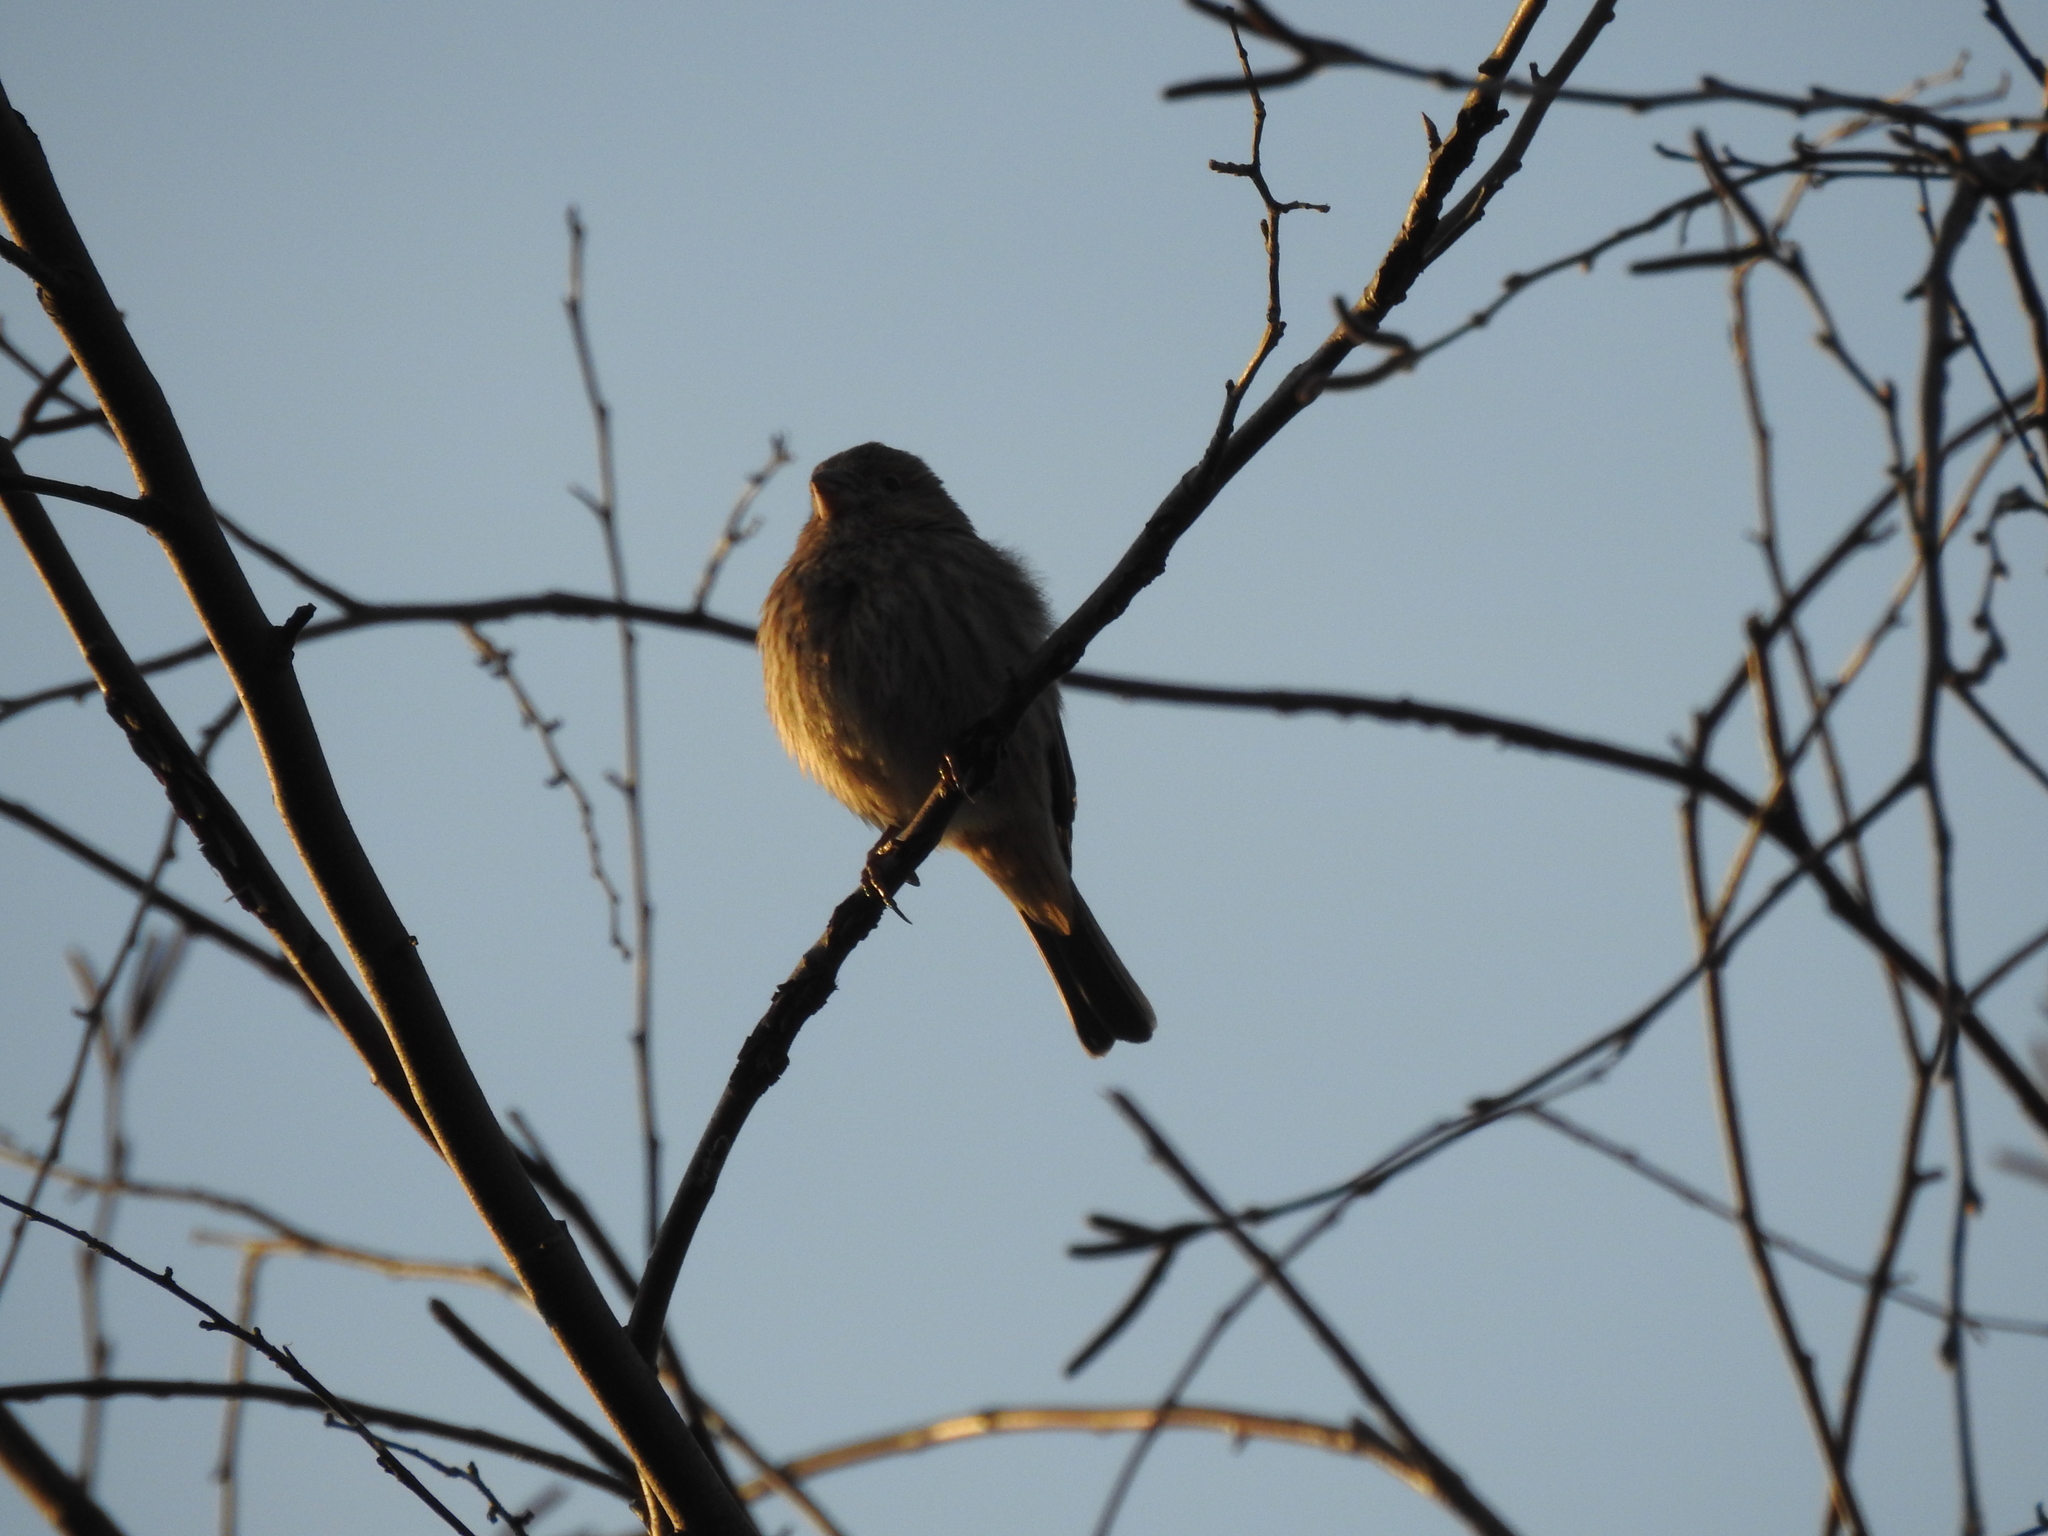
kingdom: Animalia
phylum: Chordata
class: Aves
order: Passeriformes
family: Fringillidae
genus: Haemorhous
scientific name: Haemorhous mexicanus
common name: House finch
